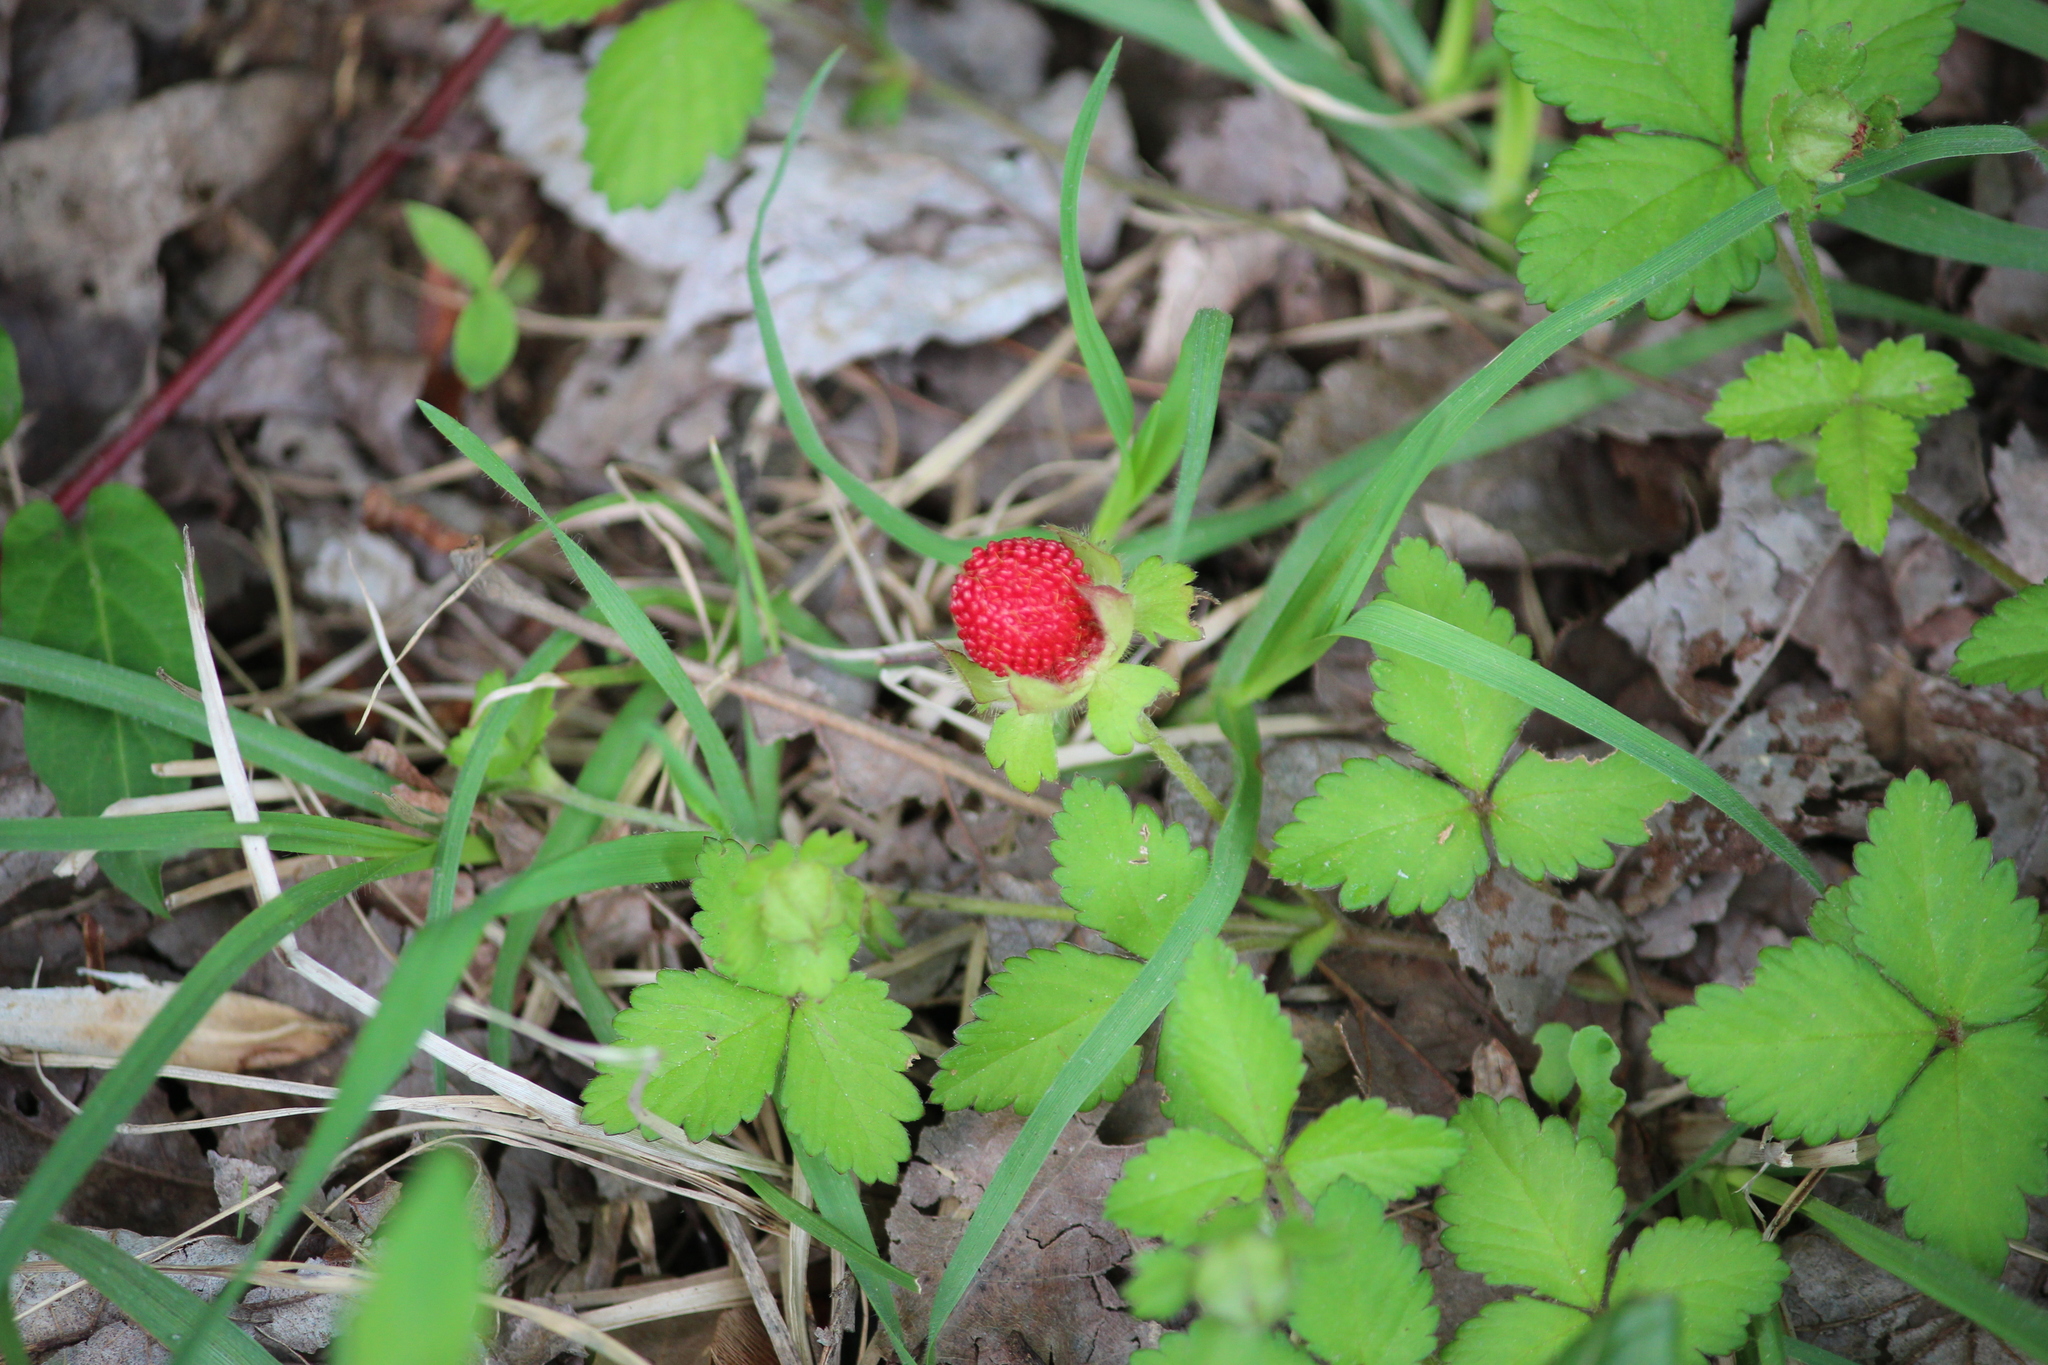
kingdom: Plantae
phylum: Tracheophyta
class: Magnoliopsida
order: Rosales
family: Rosaceae
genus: Potentilla
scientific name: Potentilla indica
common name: Yellow-flowered strawberry
